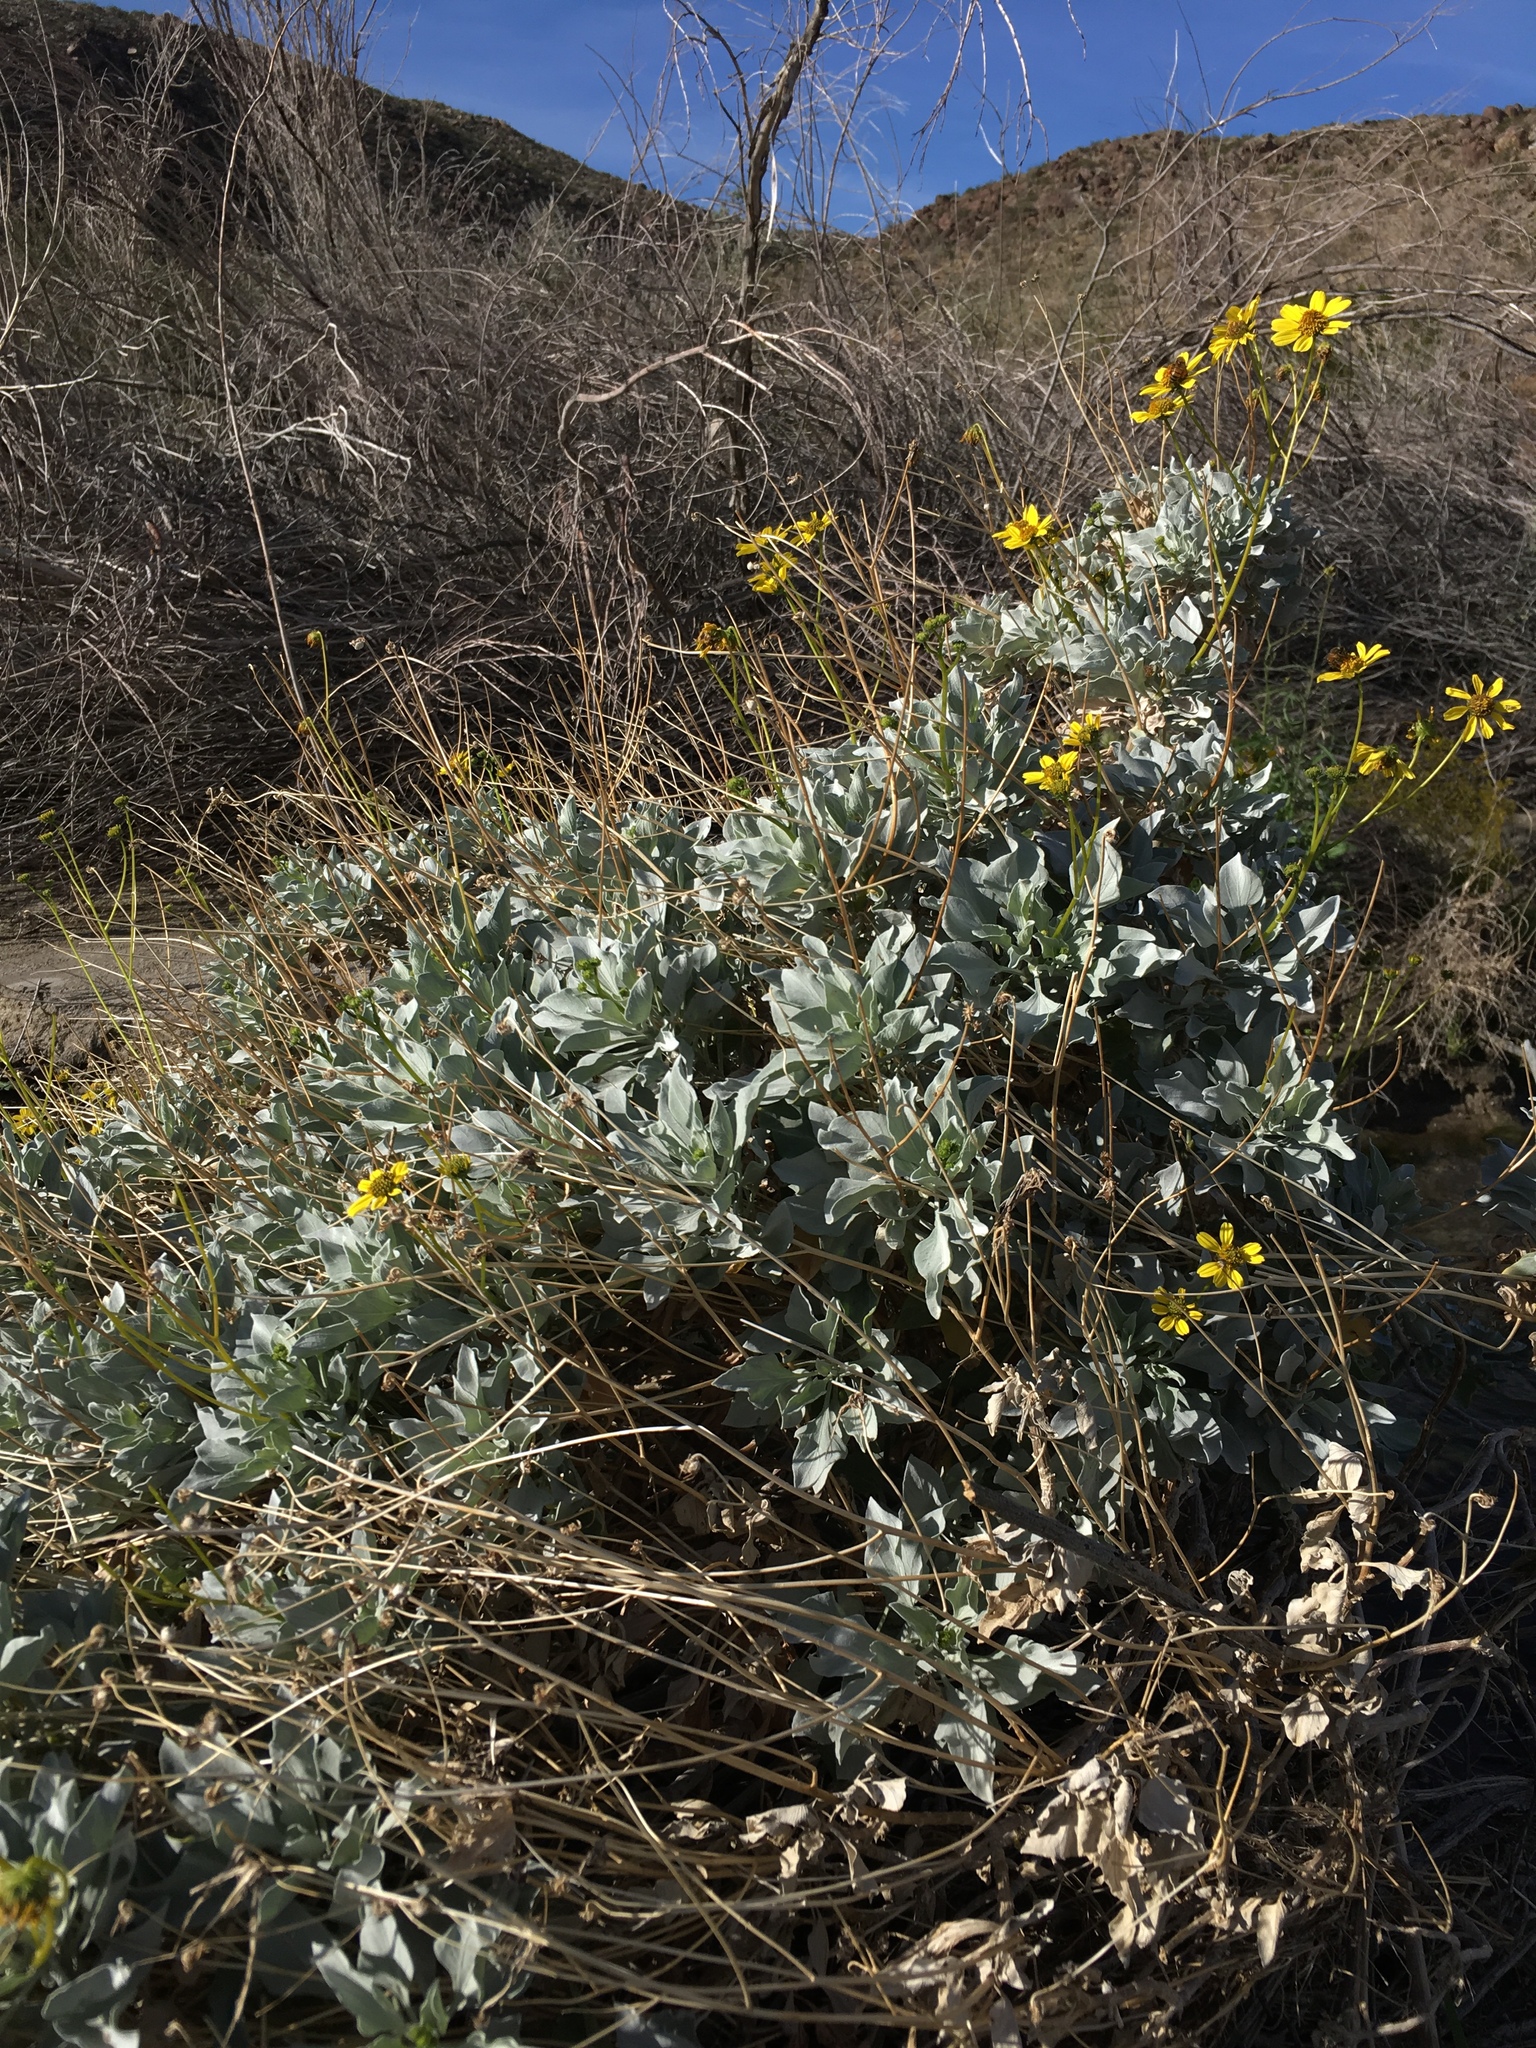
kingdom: Plantae
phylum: Tracheophyta
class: Magnoliopsida
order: Asterales
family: Asteraceae
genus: Encelia
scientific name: Encelia farinosa
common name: Brittlebush
